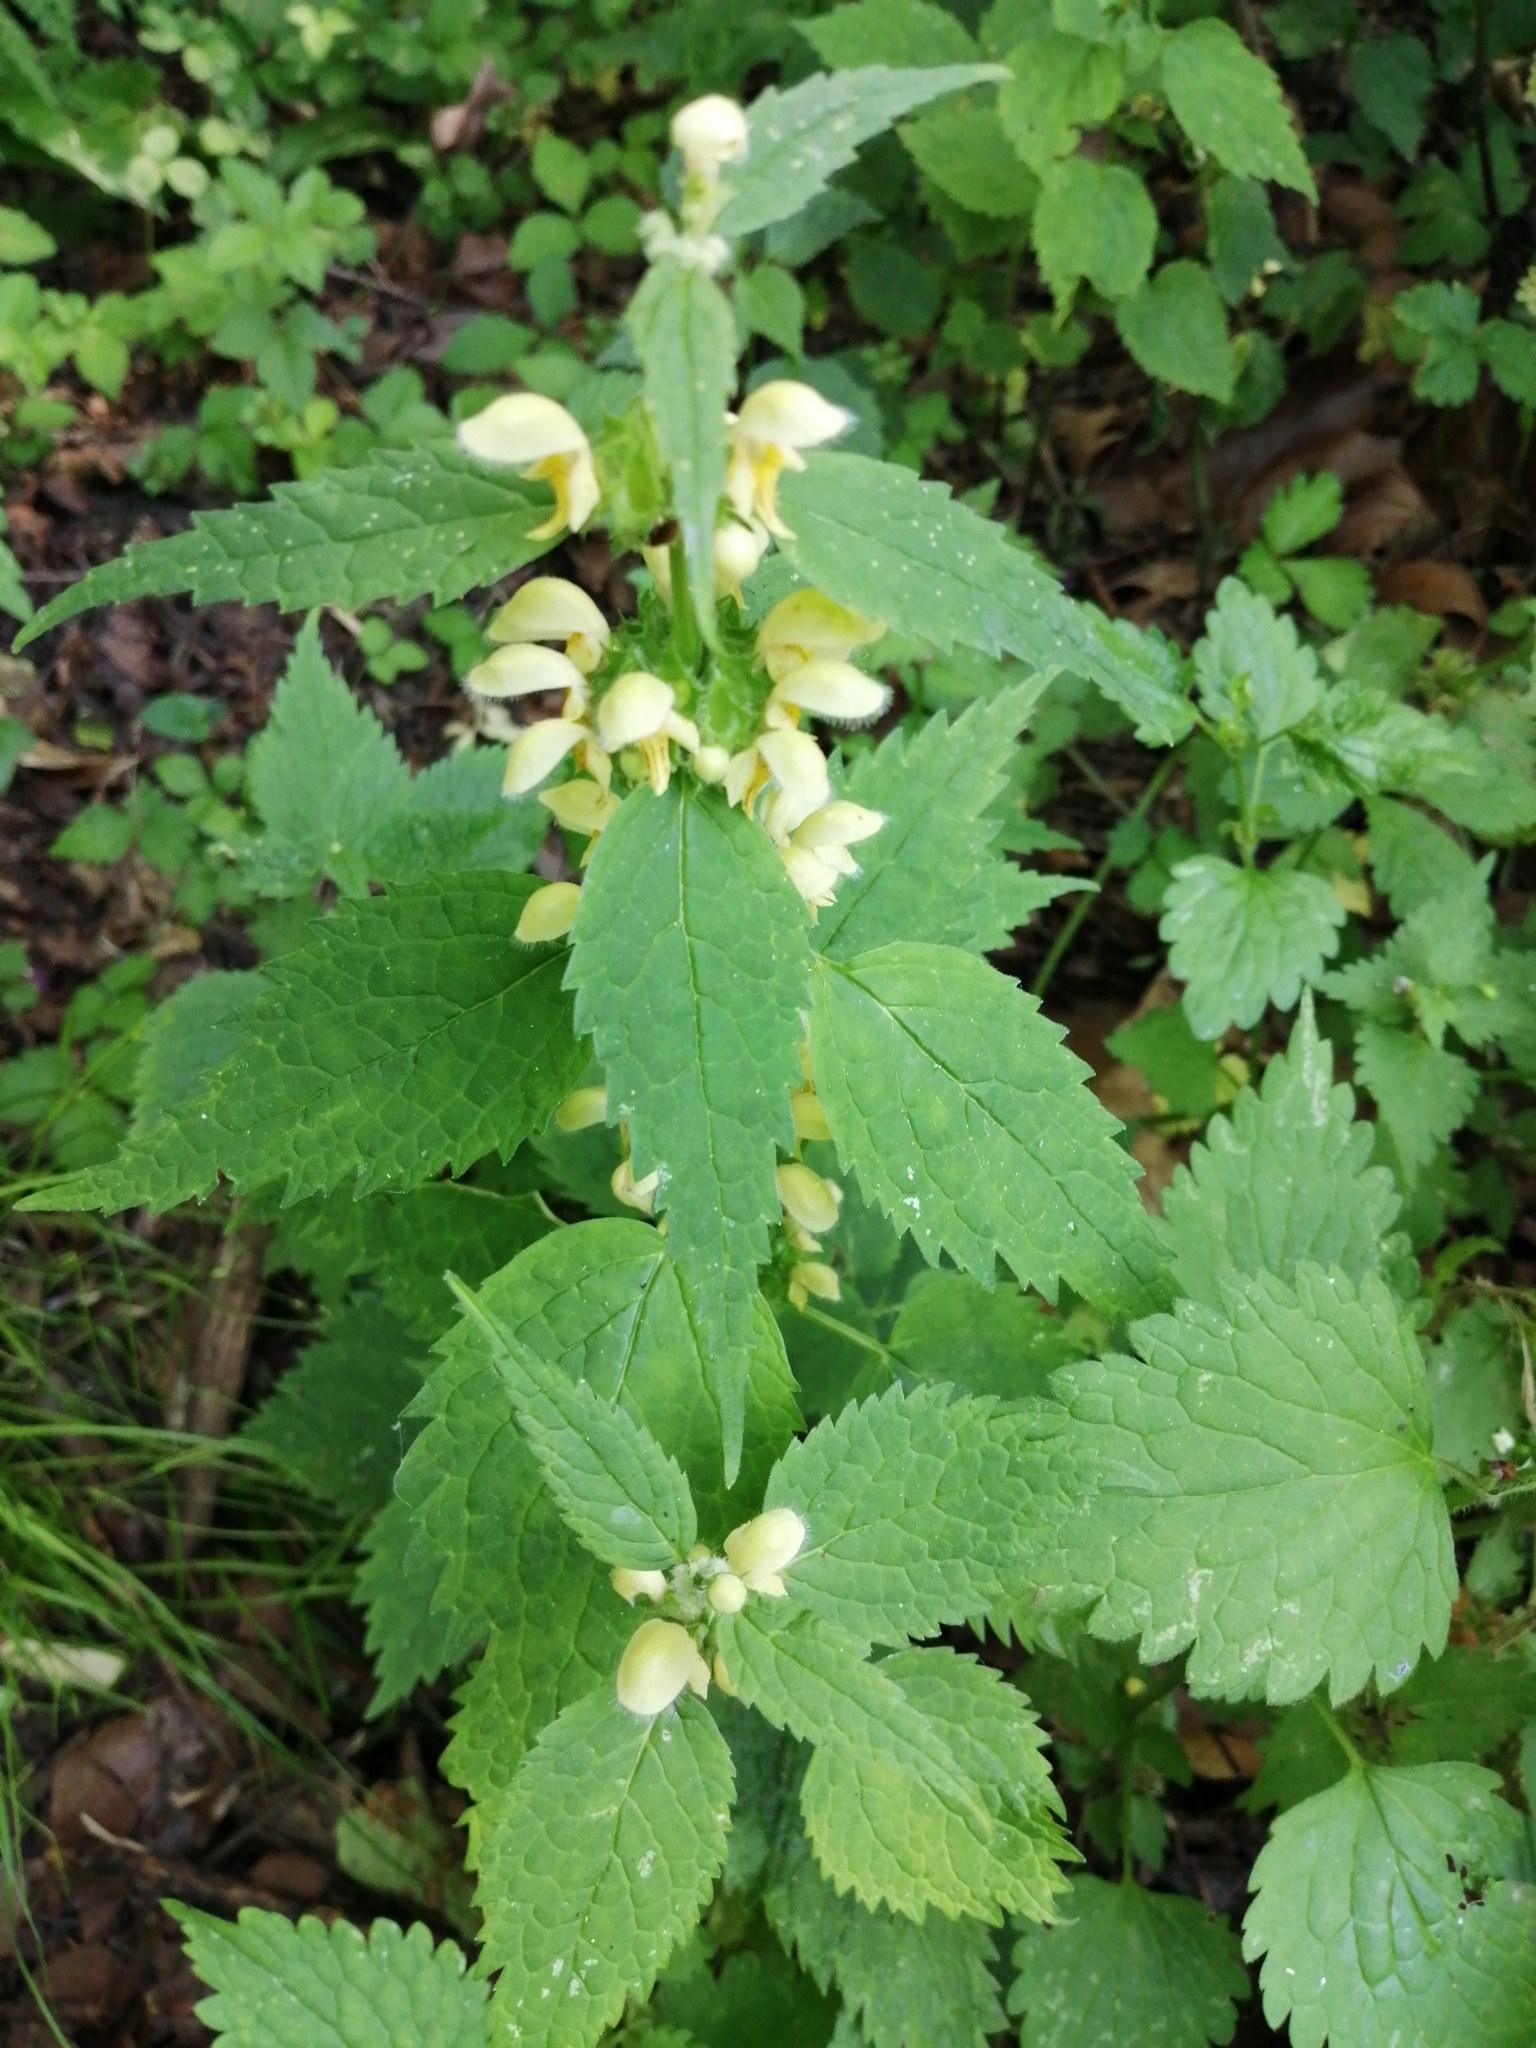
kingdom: Plantae
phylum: Tracheophyta
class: Magnoliopsida
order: Lamiales
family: Lamiaceae
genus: Lamium
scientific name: Lamium galeobdolon
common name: Yellow archangel
